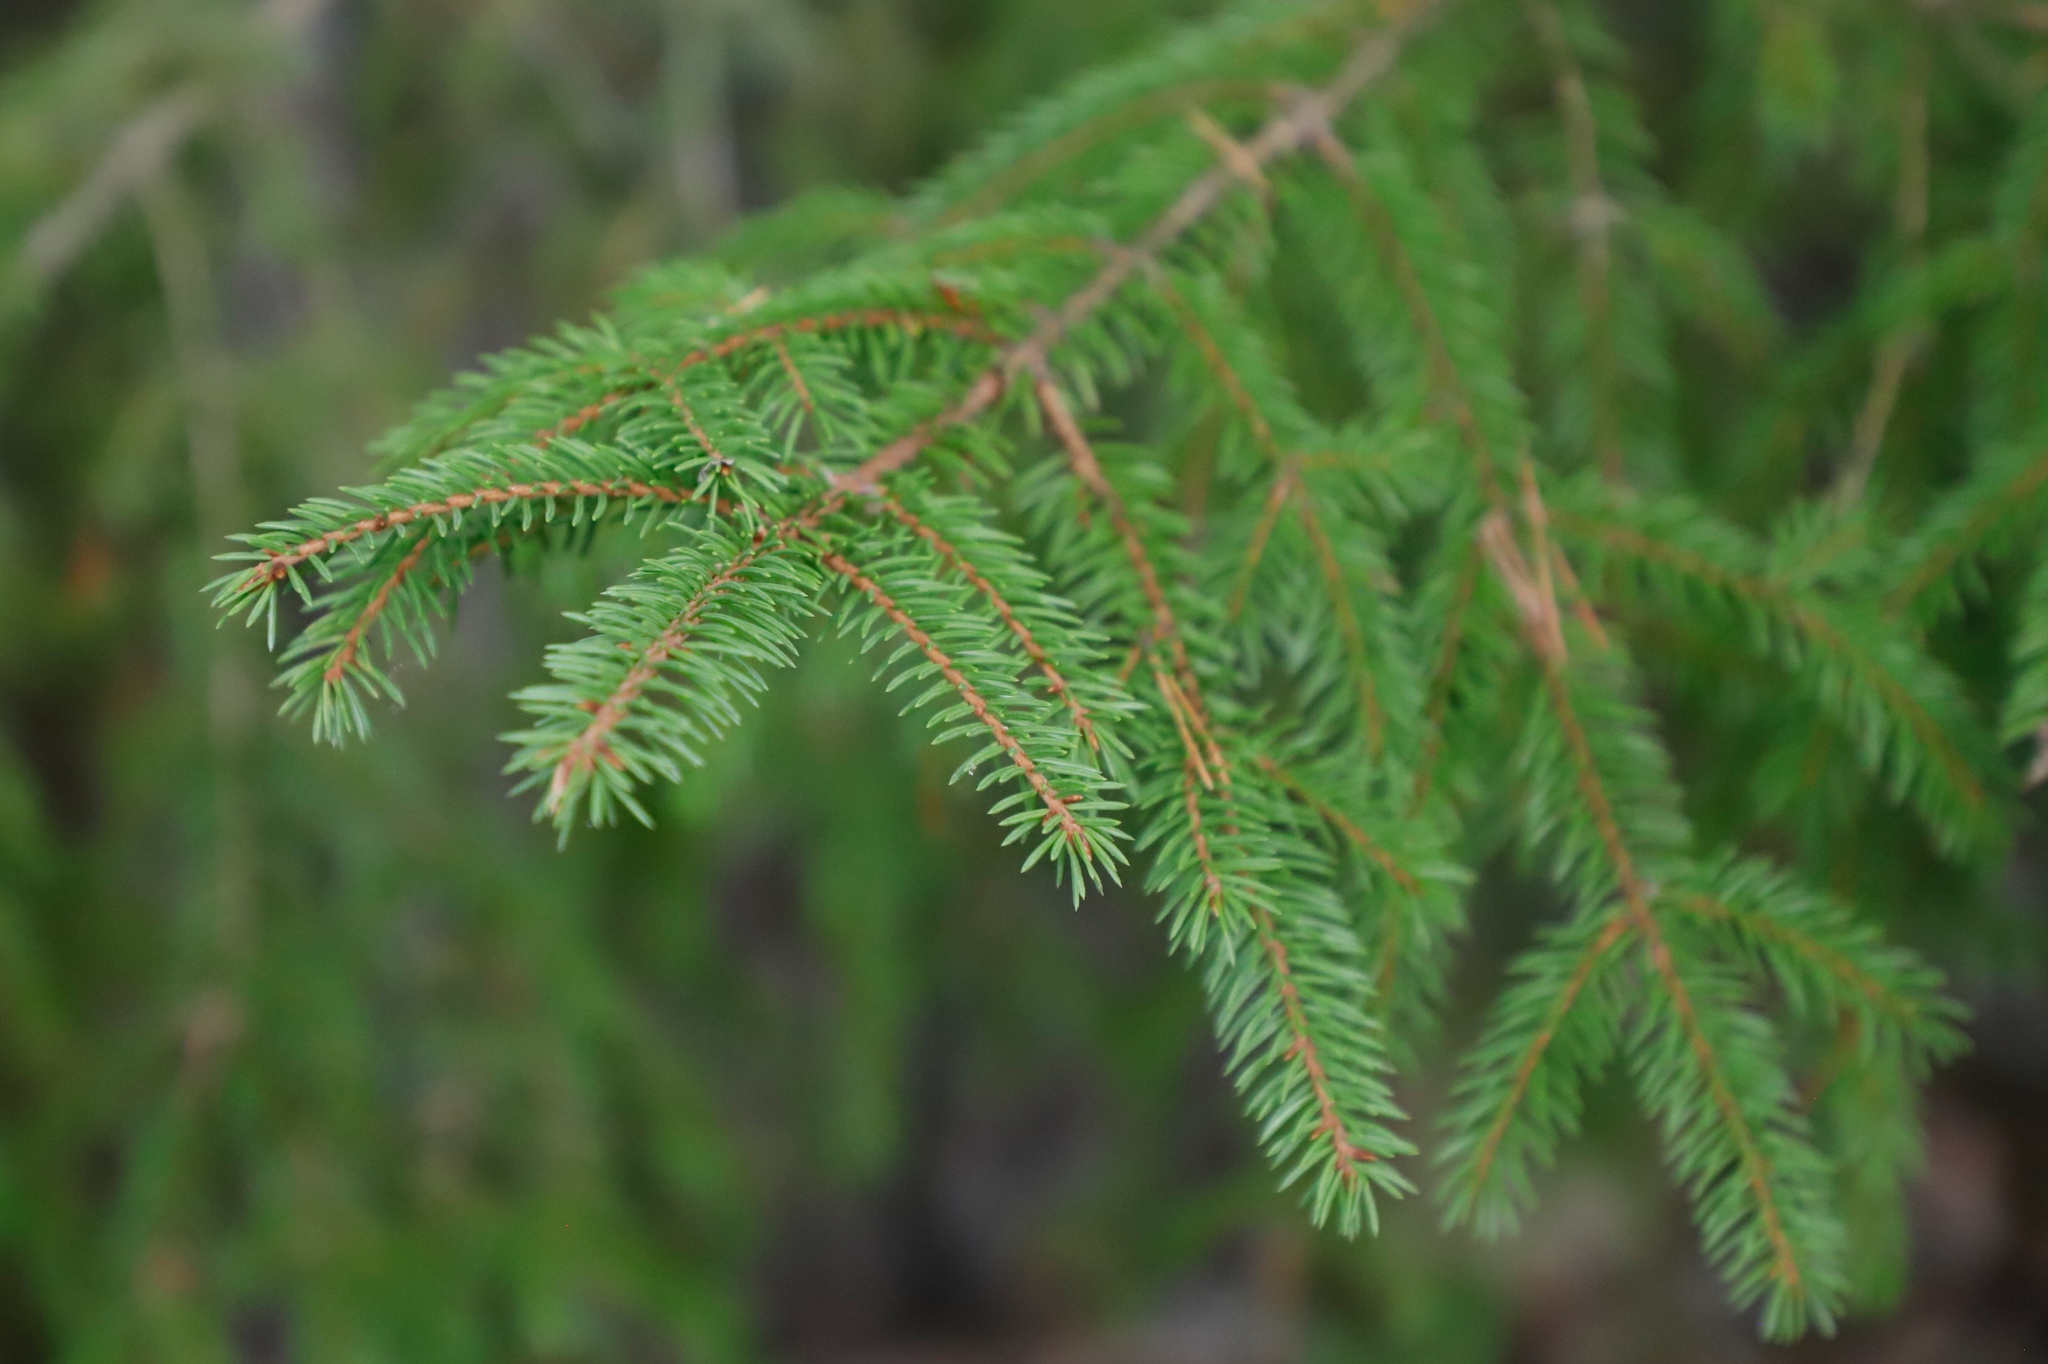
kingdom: Plantae
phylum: Tracheophyta
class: Pinopsida
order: Pinales
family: Pinaceae
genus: Picea
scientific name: Picea abies
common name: Norway spruce
